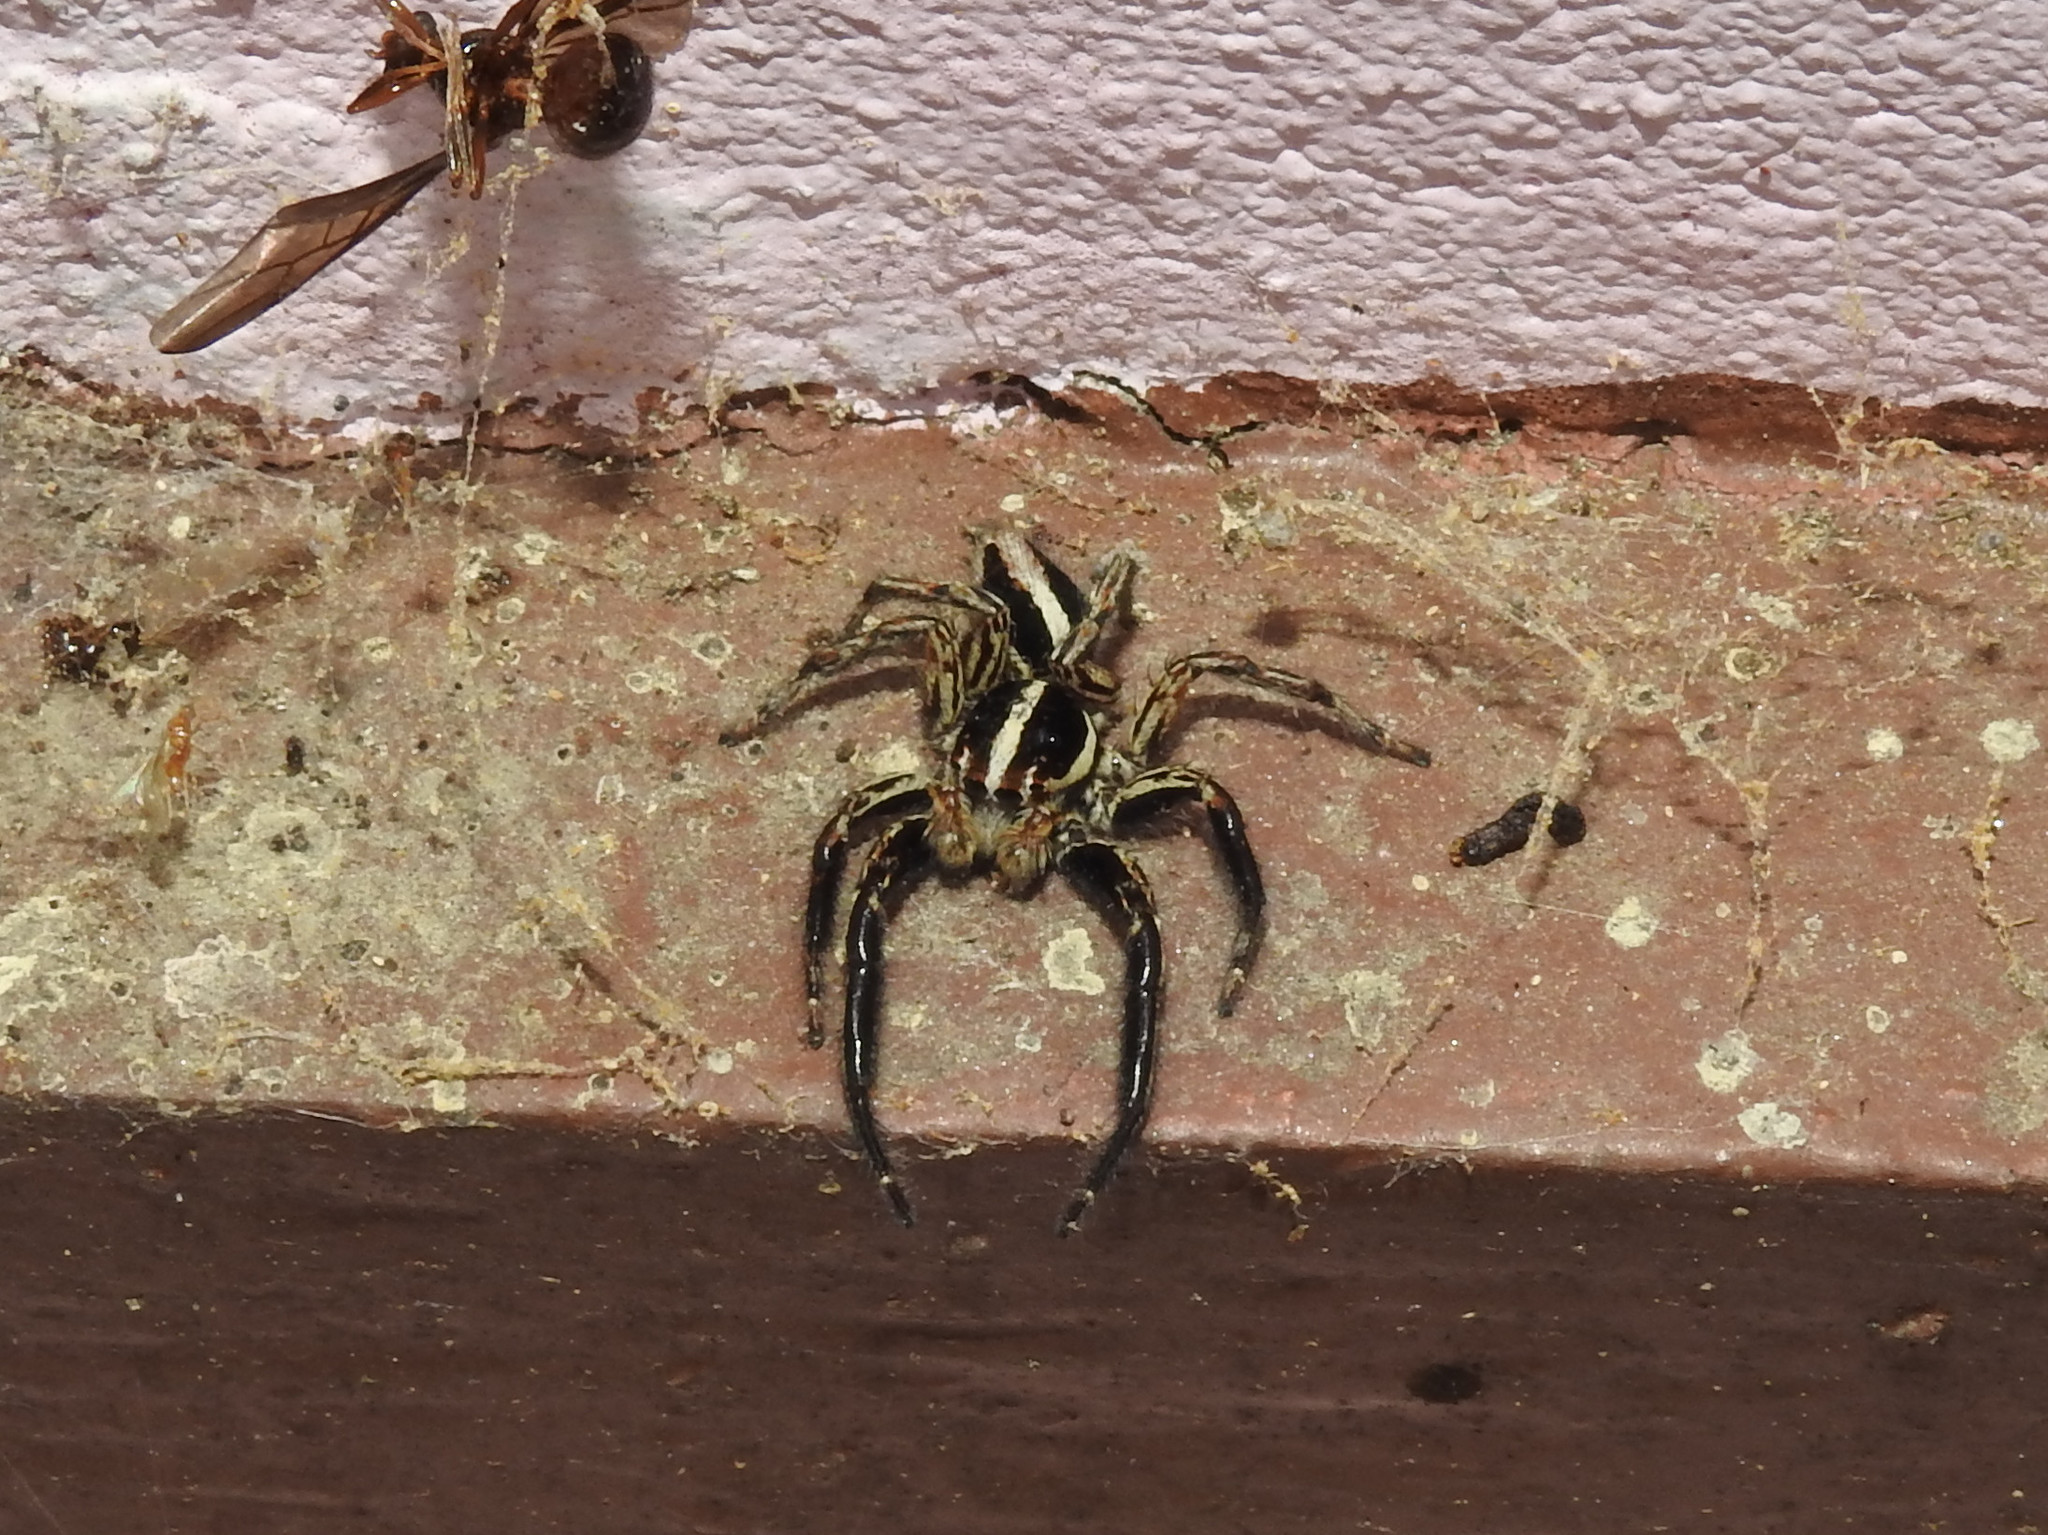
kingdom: Animalia
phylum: Arthropoda
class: Arachnida
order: Araneae
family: Salticidae
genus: Plexippus
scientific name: Plexippus paykulli
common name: Pantropical jumper
